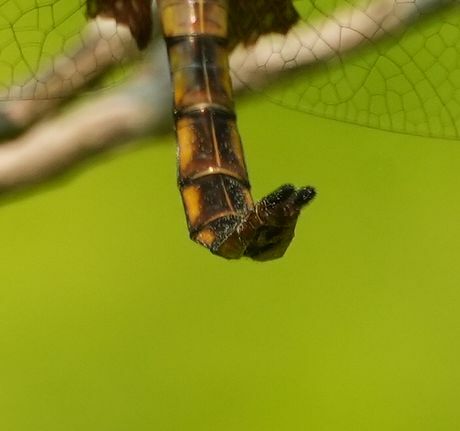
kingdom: Animalia
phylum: Arthropoda
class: Insecta
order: Odonata
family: Corduliidae
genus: Epitheca
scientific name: Epitheca princeps
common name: Prince baskettail
